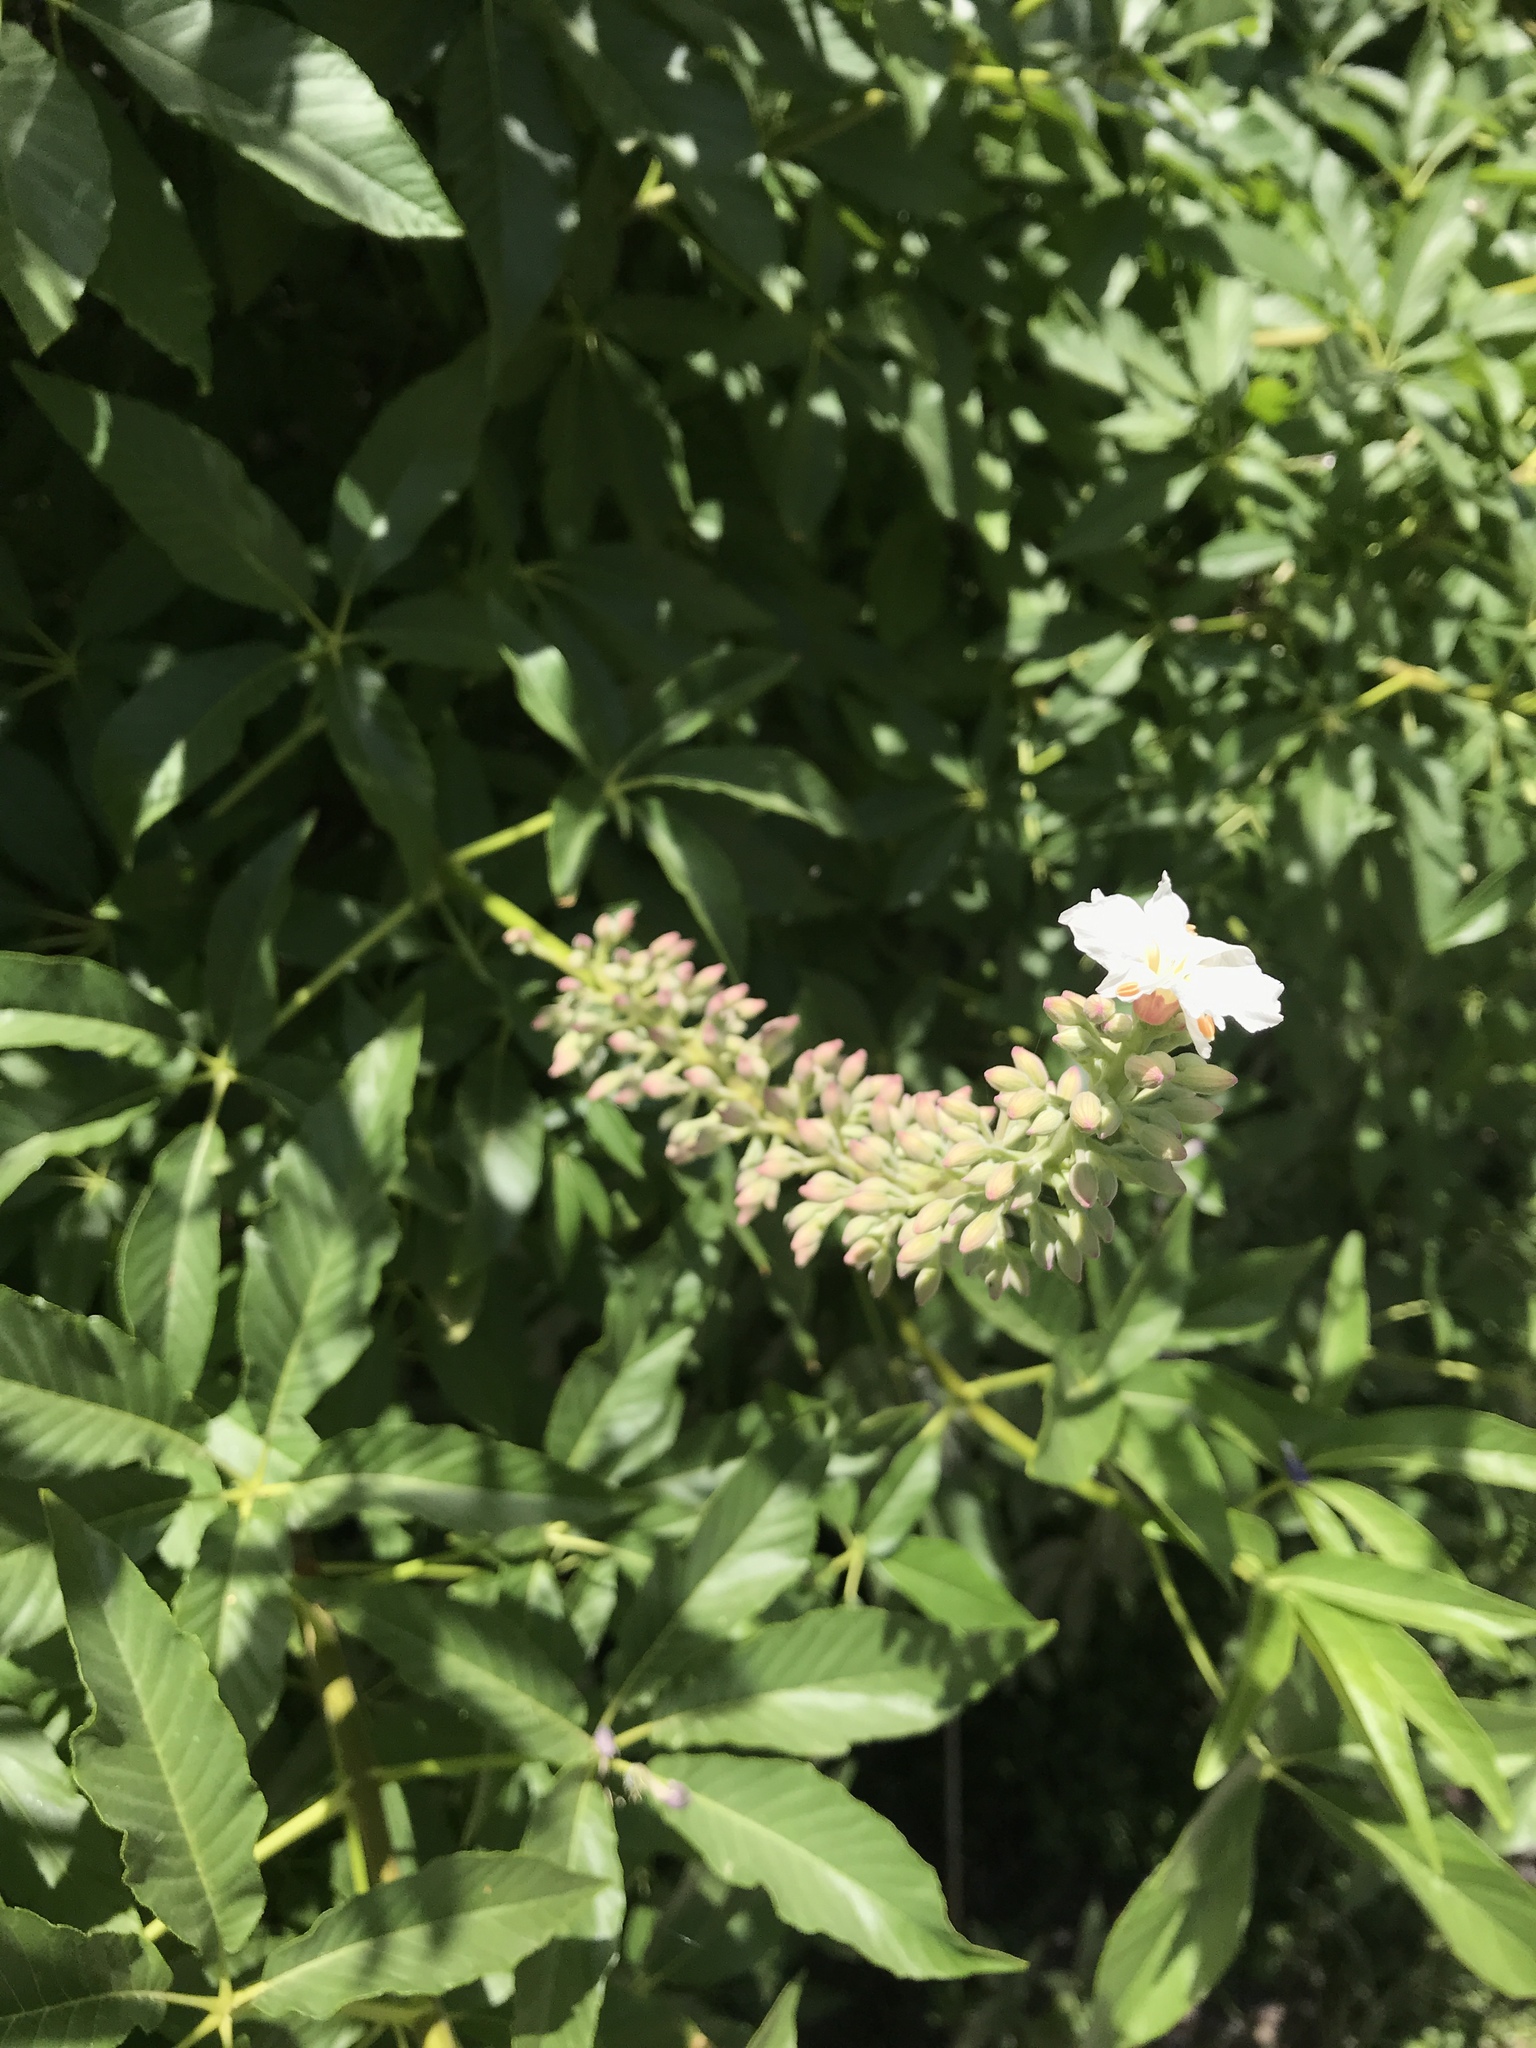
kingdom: Plantae
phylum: Tracheophyta
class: Magnoliopsida
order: Sapindales
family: Sapindaceae
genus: Aesculus
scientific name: Aesculus californica
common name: California buckeye
